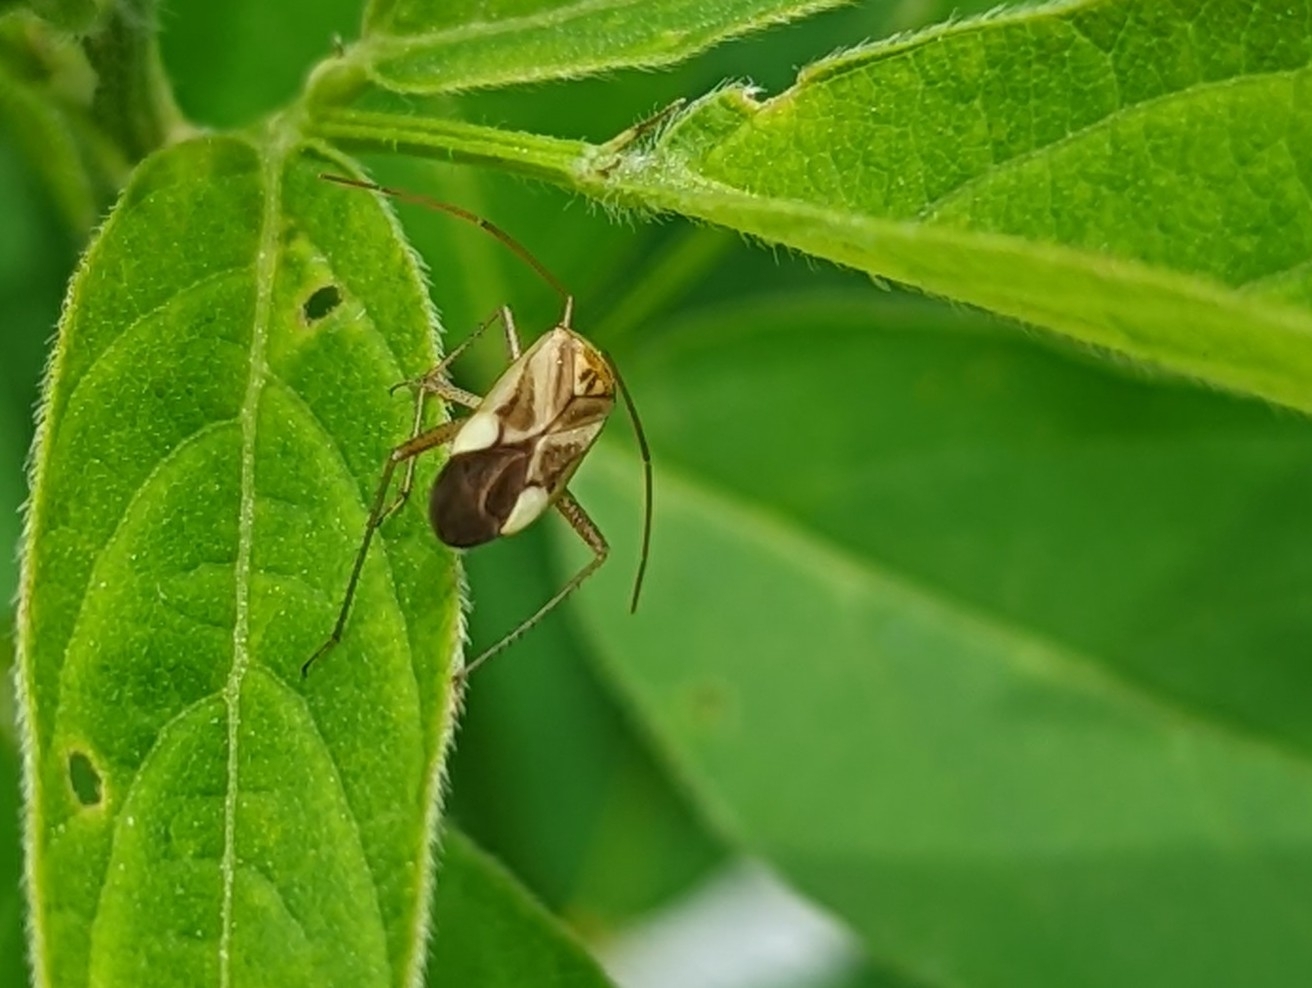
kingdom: Animalia
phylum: Arthropoda
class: Insecta
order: Hemiptera
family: Miridae
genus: Adelphocoris
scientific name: Adelphocoris lineolatus
